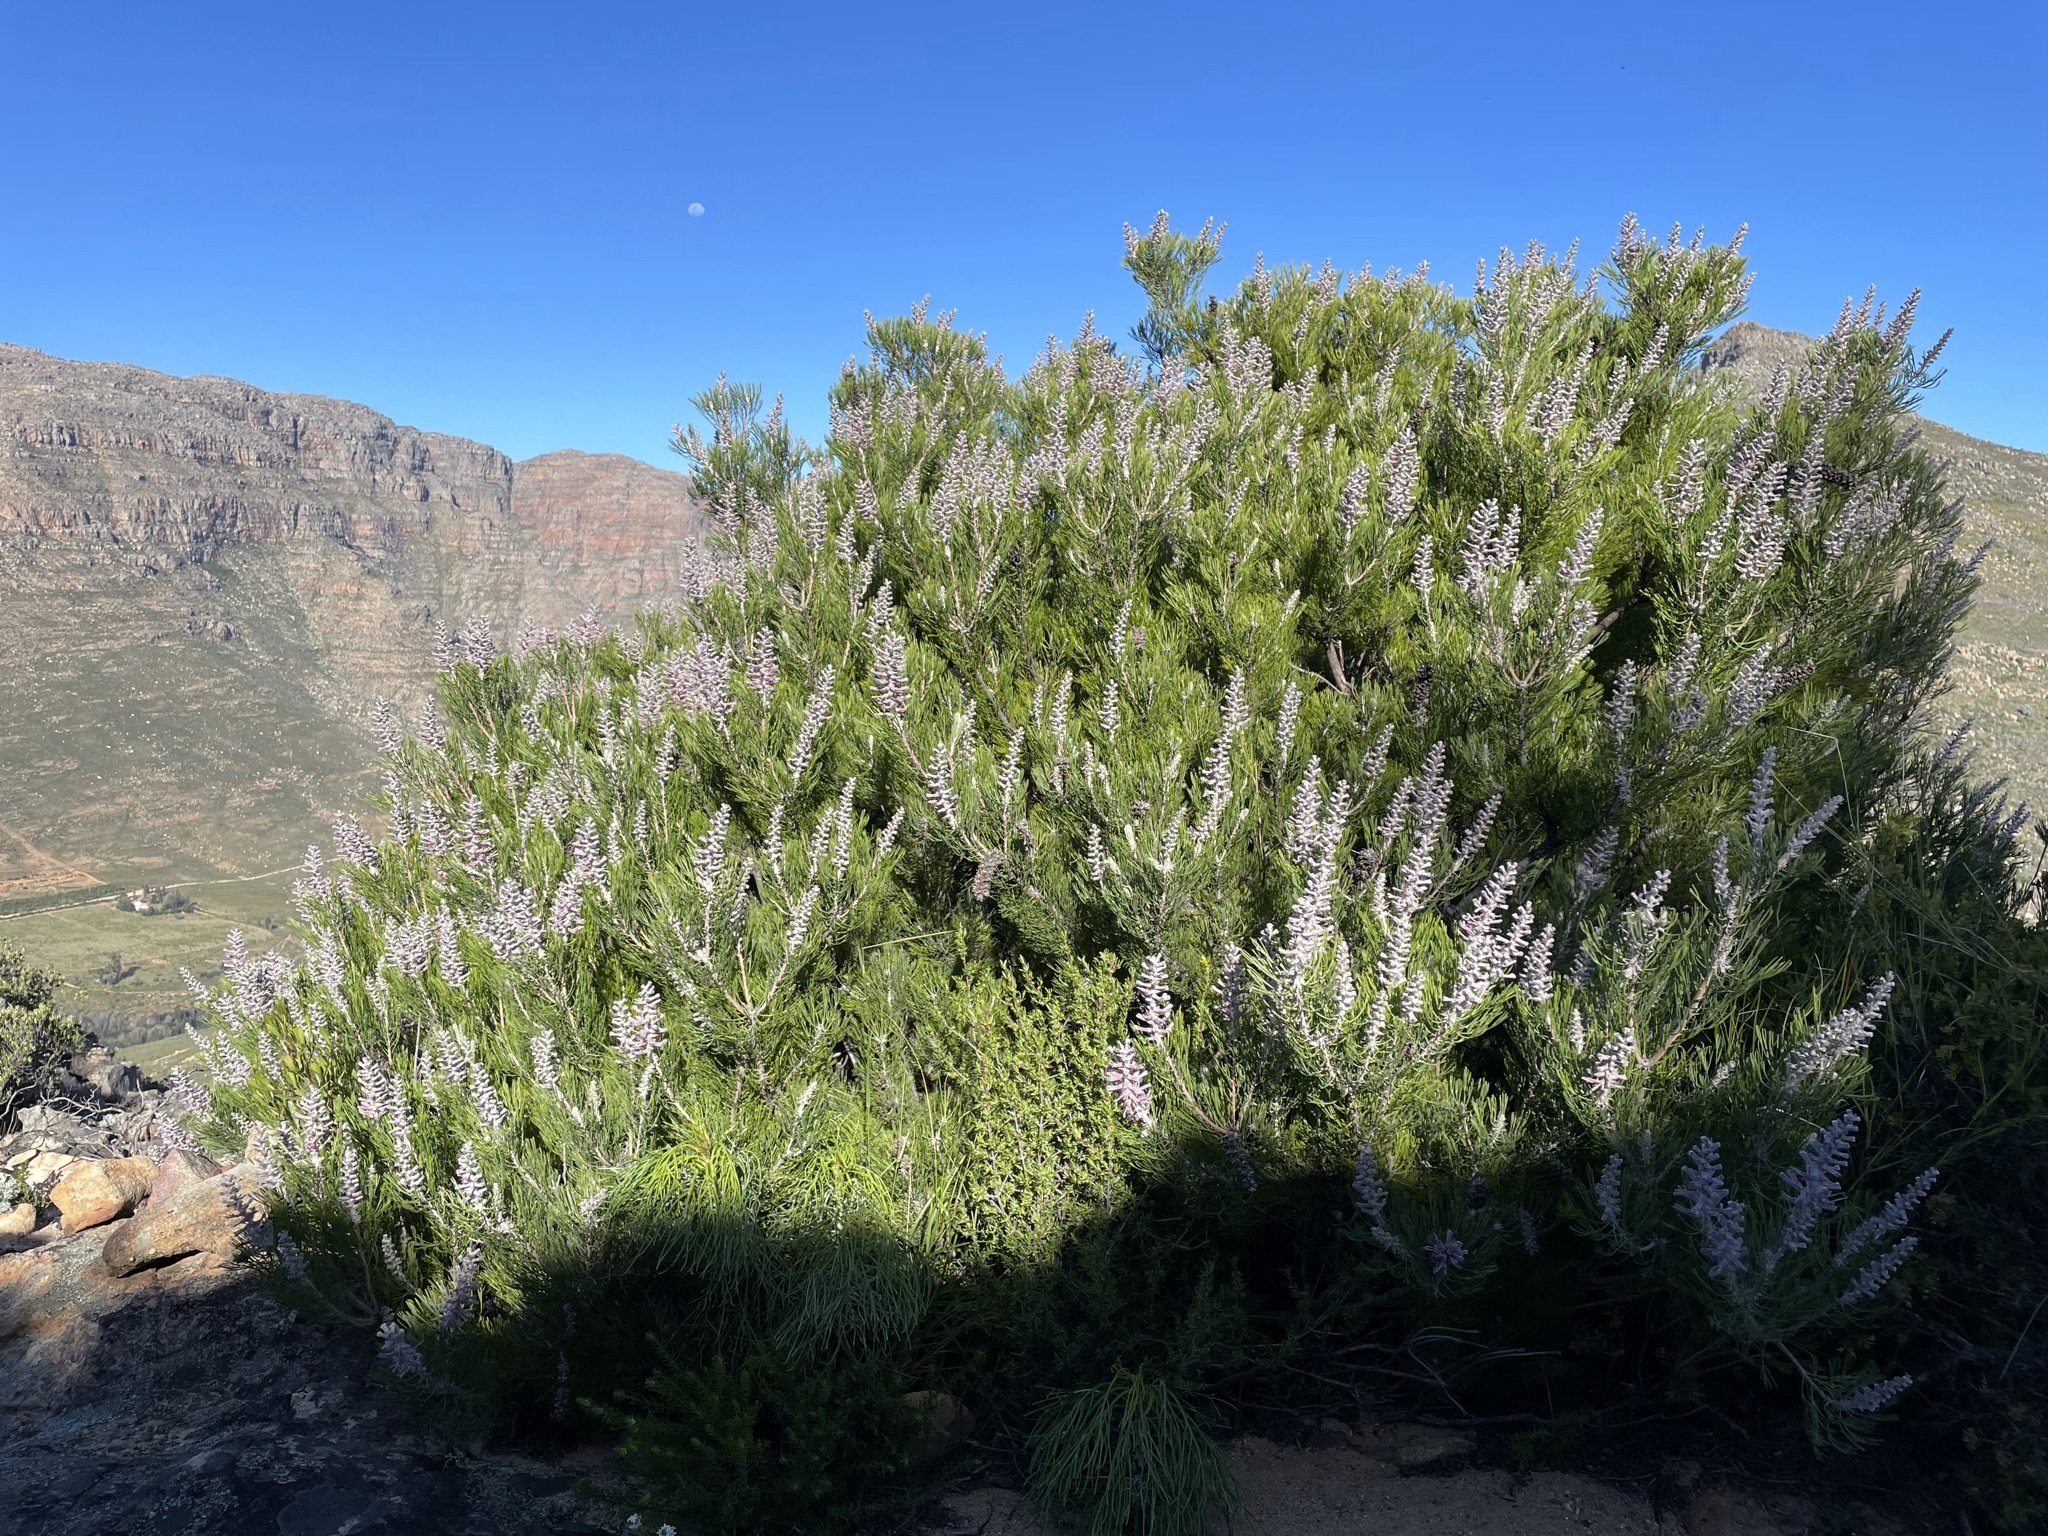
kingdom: Plantae
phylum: Tracheophyta
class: Magnoliopsida
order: Proteales
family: Proteaceae
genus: Paranomus
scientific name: Paranomus bracteolaris
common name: Bokkeveld tree sceptre
